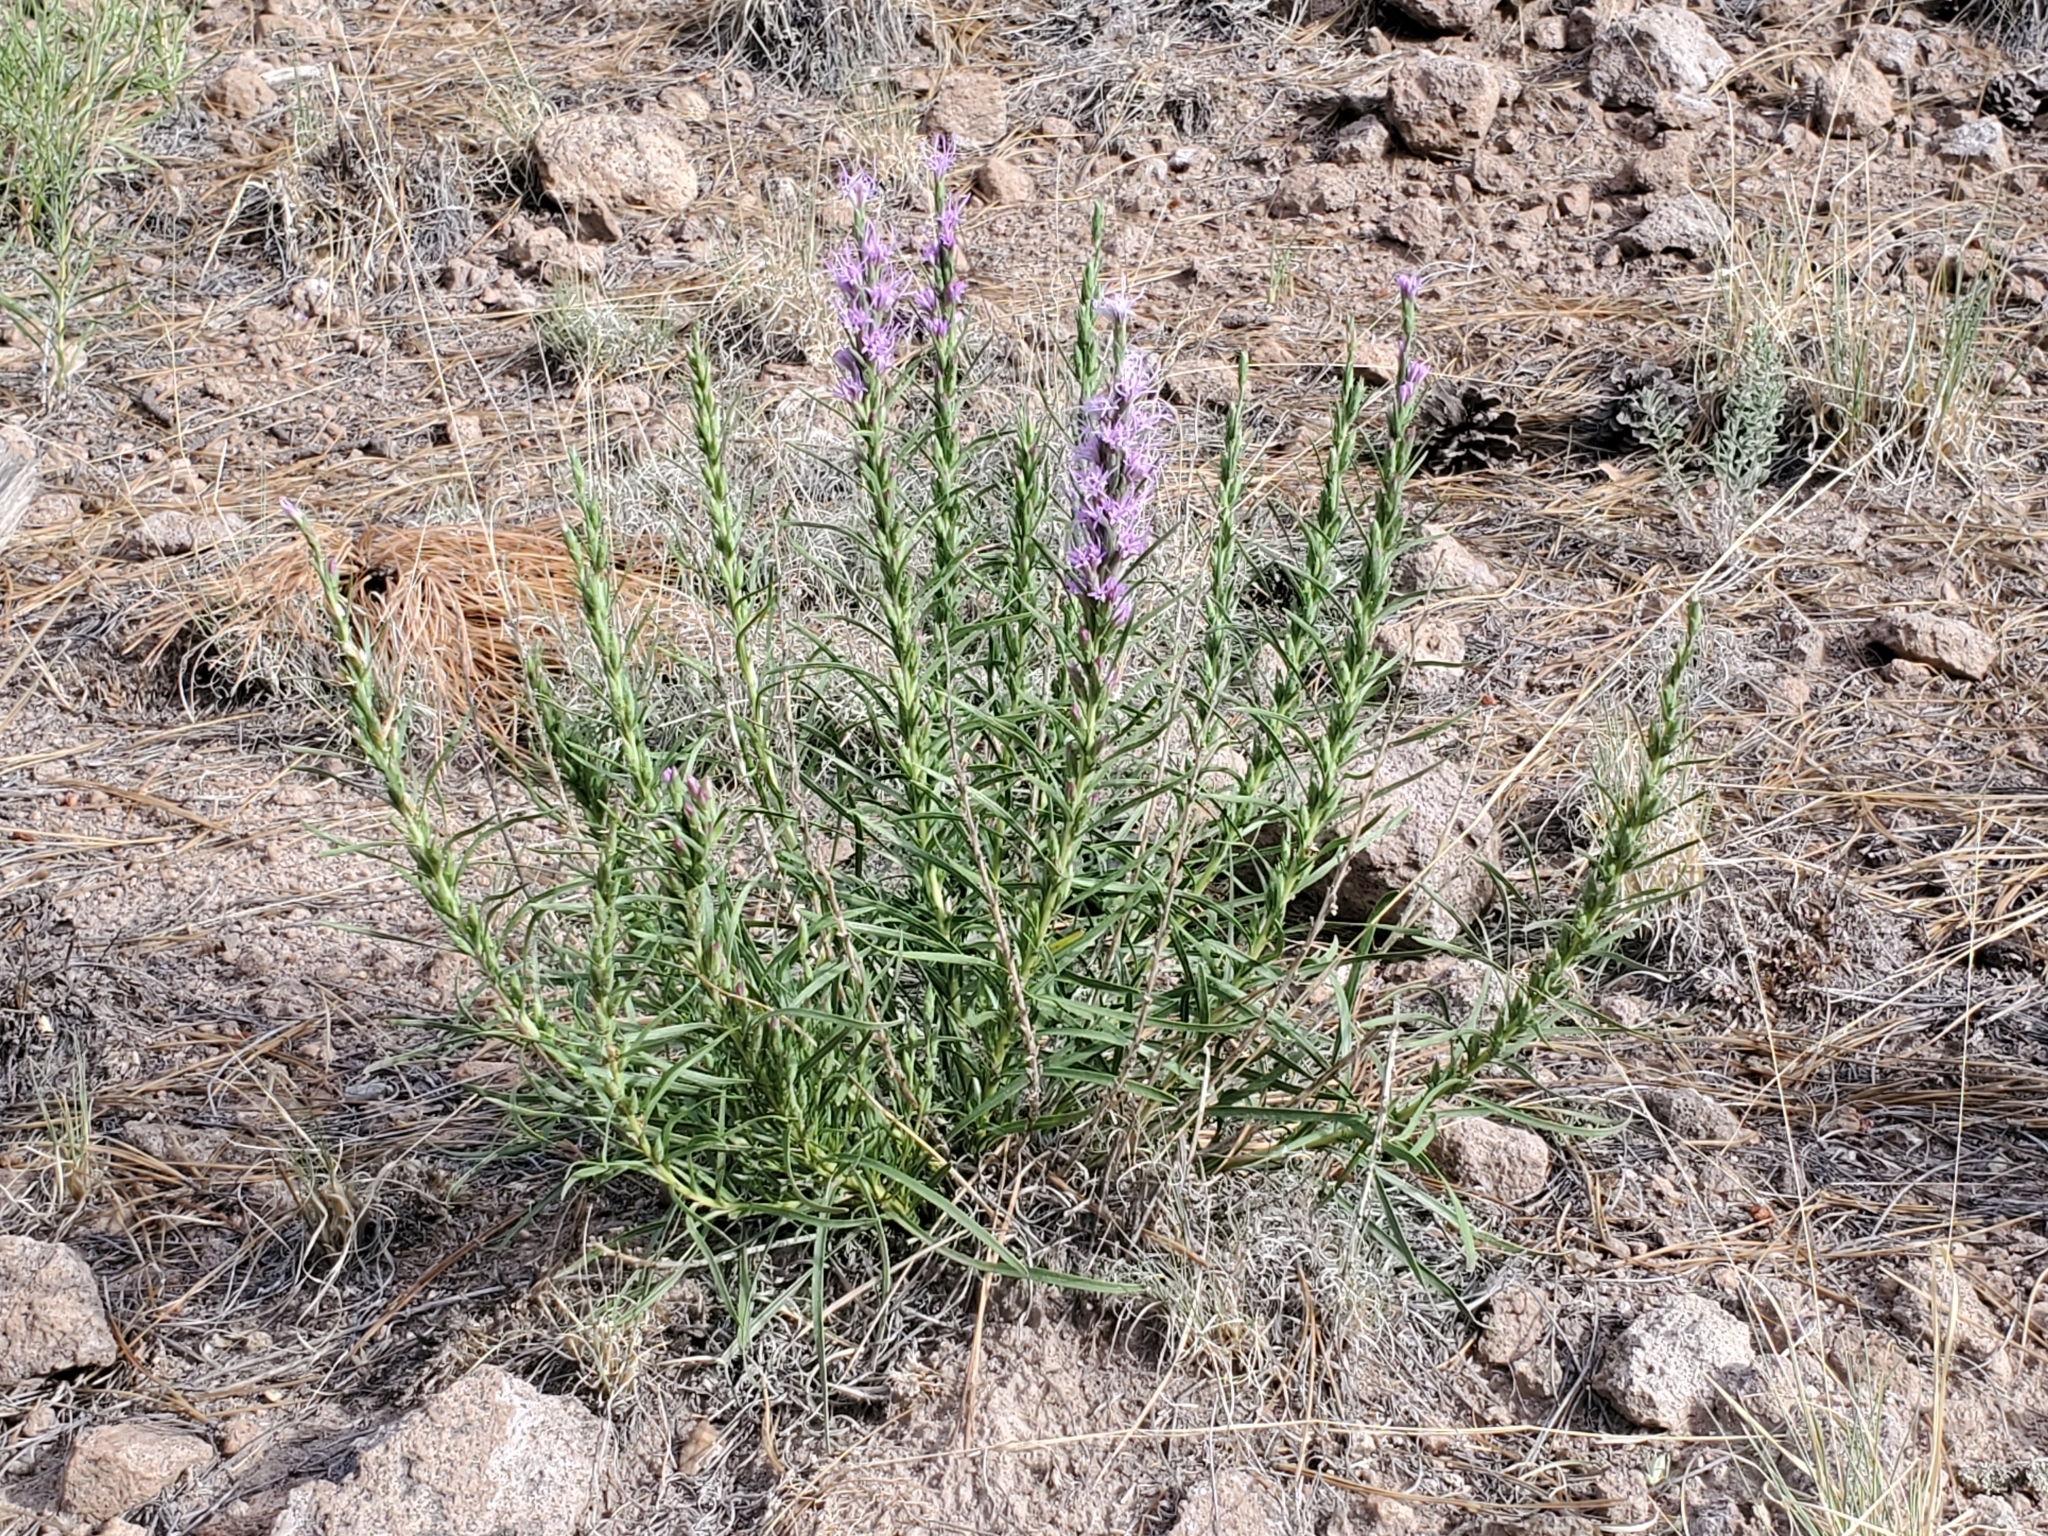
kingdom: Plantae
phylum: Tracheophyta
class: Magnoliopsida
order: Asterales
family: Asteraceae
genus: Liatris
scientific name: Liatris punctata
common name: Dotted gayfeather
